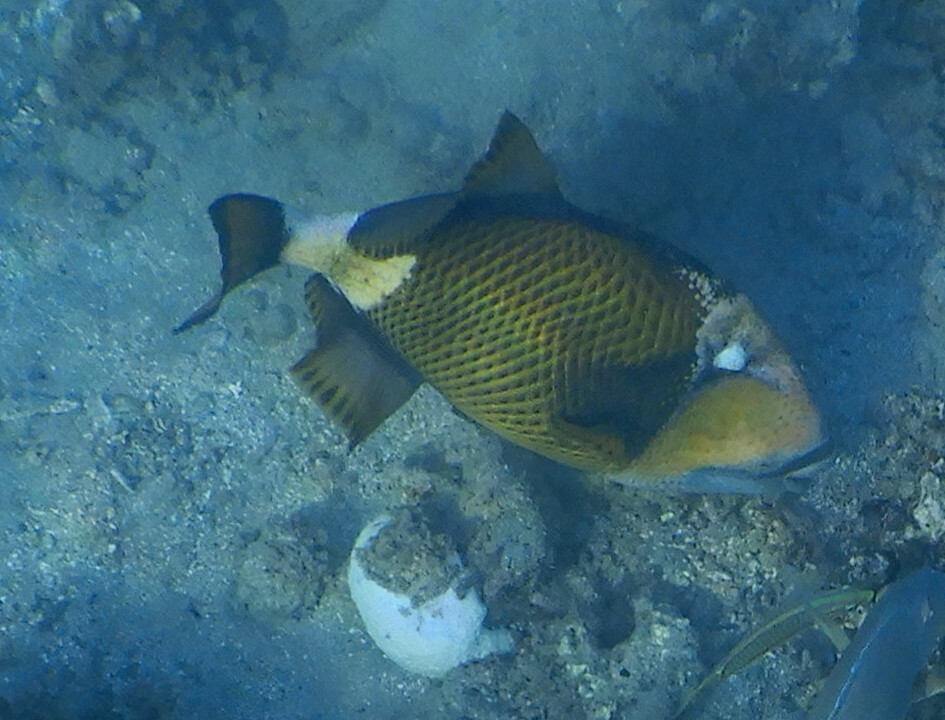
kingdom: Animalia
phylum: Chordata
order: Tetraodontiformes
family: Balistidae
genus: Balistoides
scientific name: Balistoides viridescens
